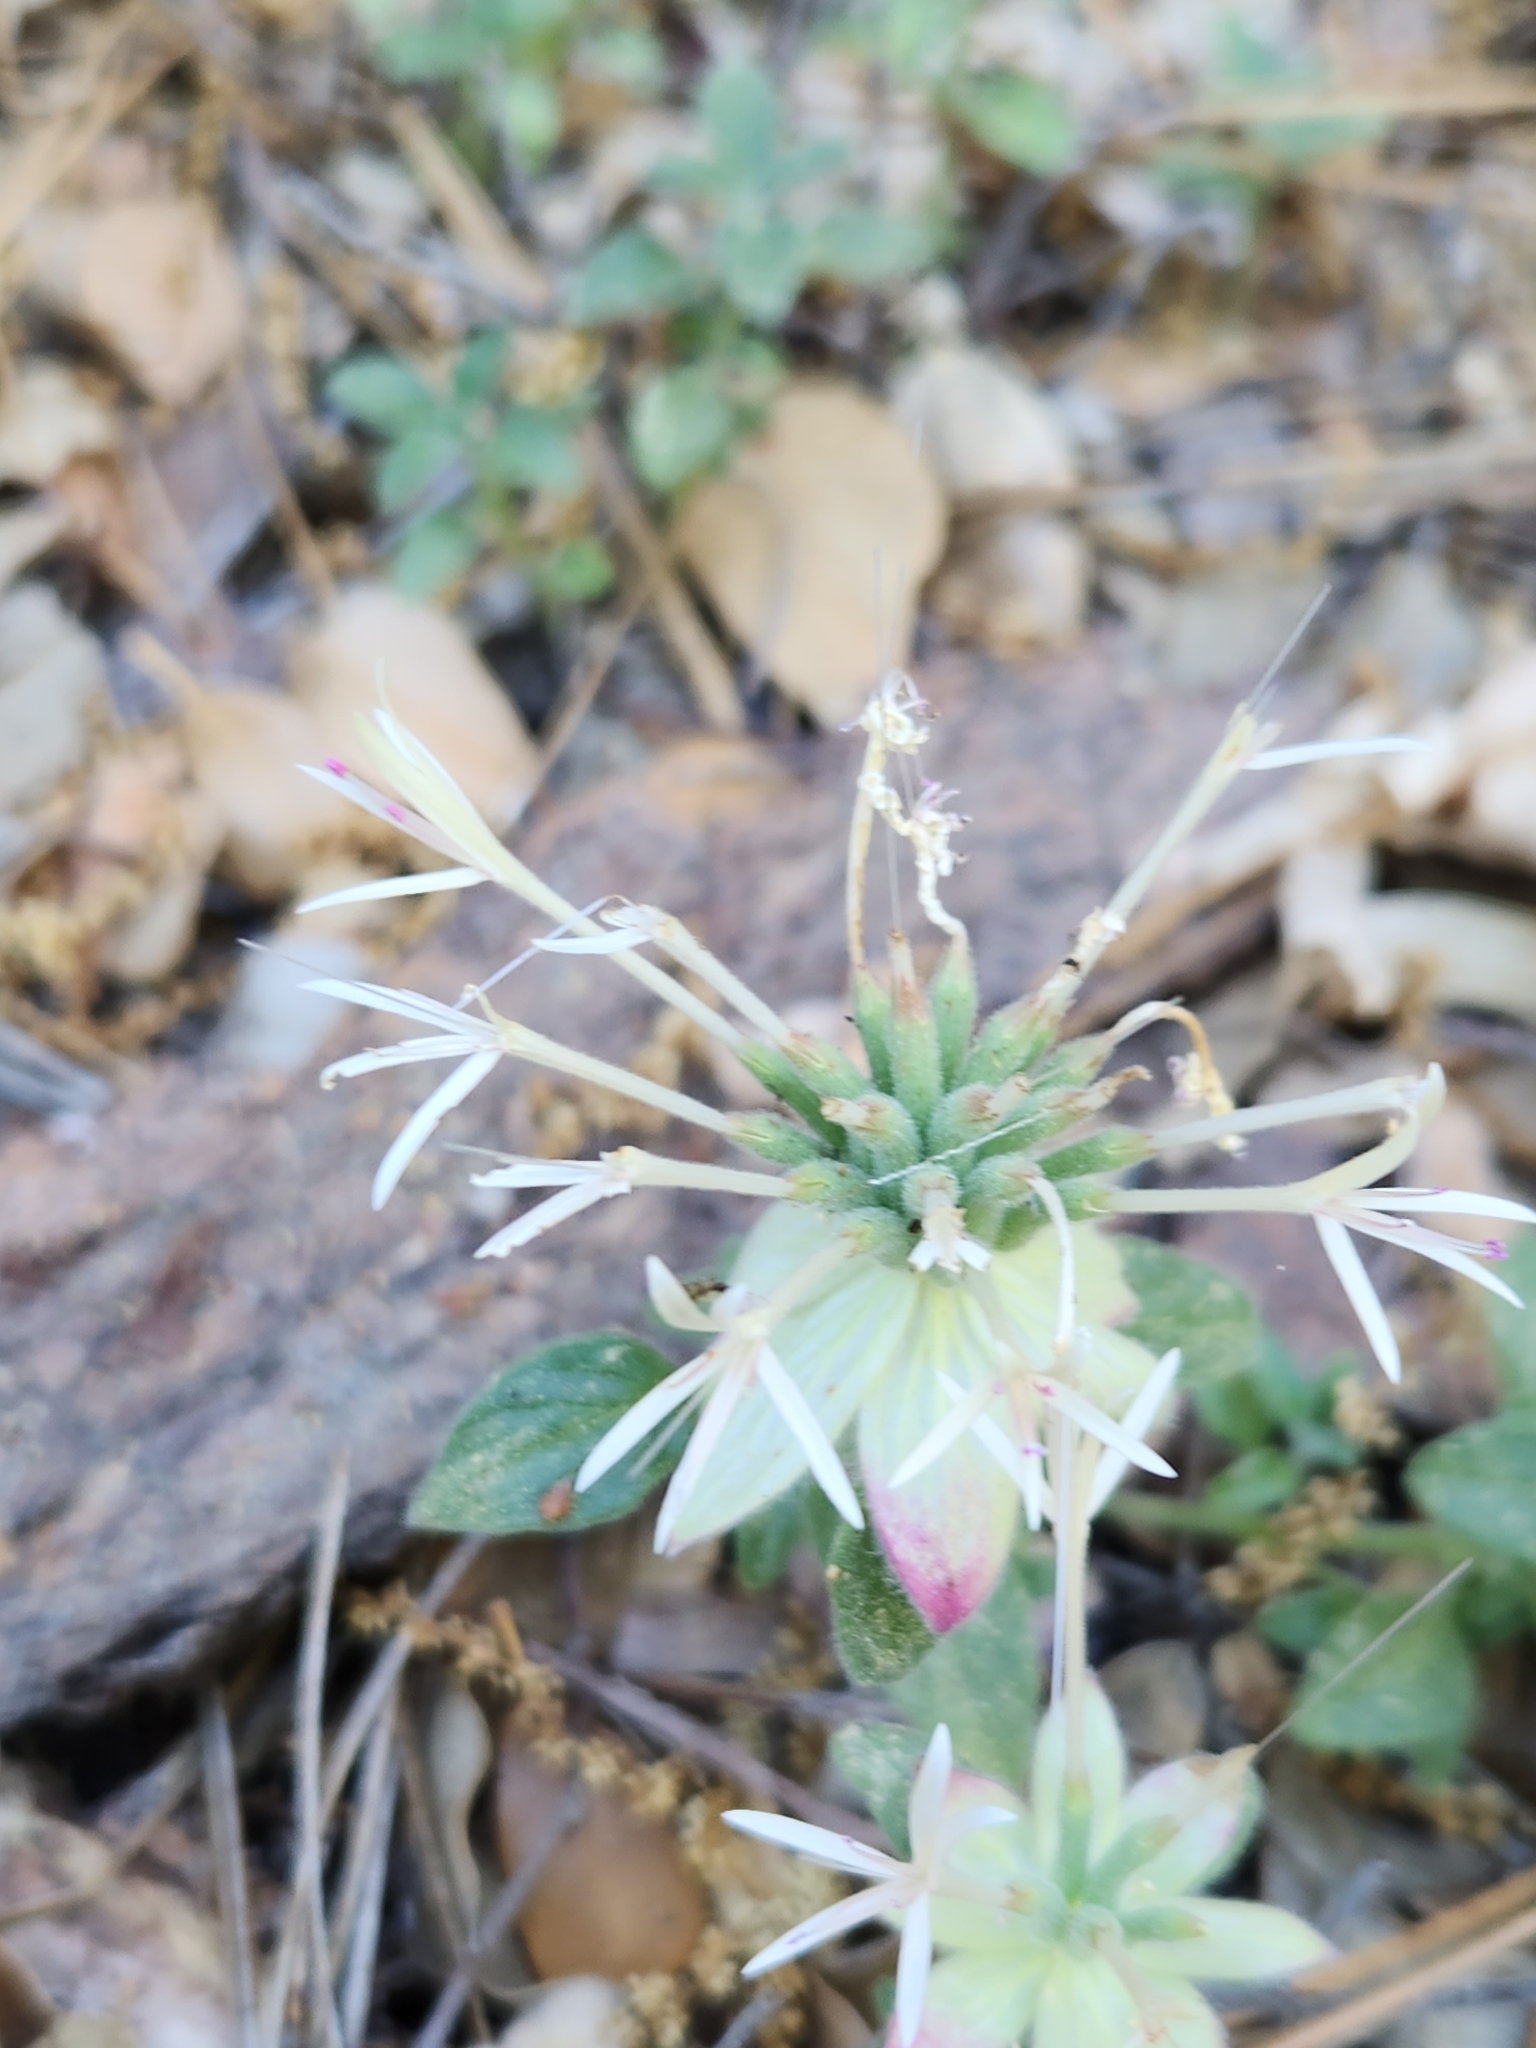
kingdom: Plantae
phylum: Tracheophyta
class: Magnoliopsida
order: Lamiales
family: Lamiaceae
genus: Monardella
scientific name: Monardella nana
